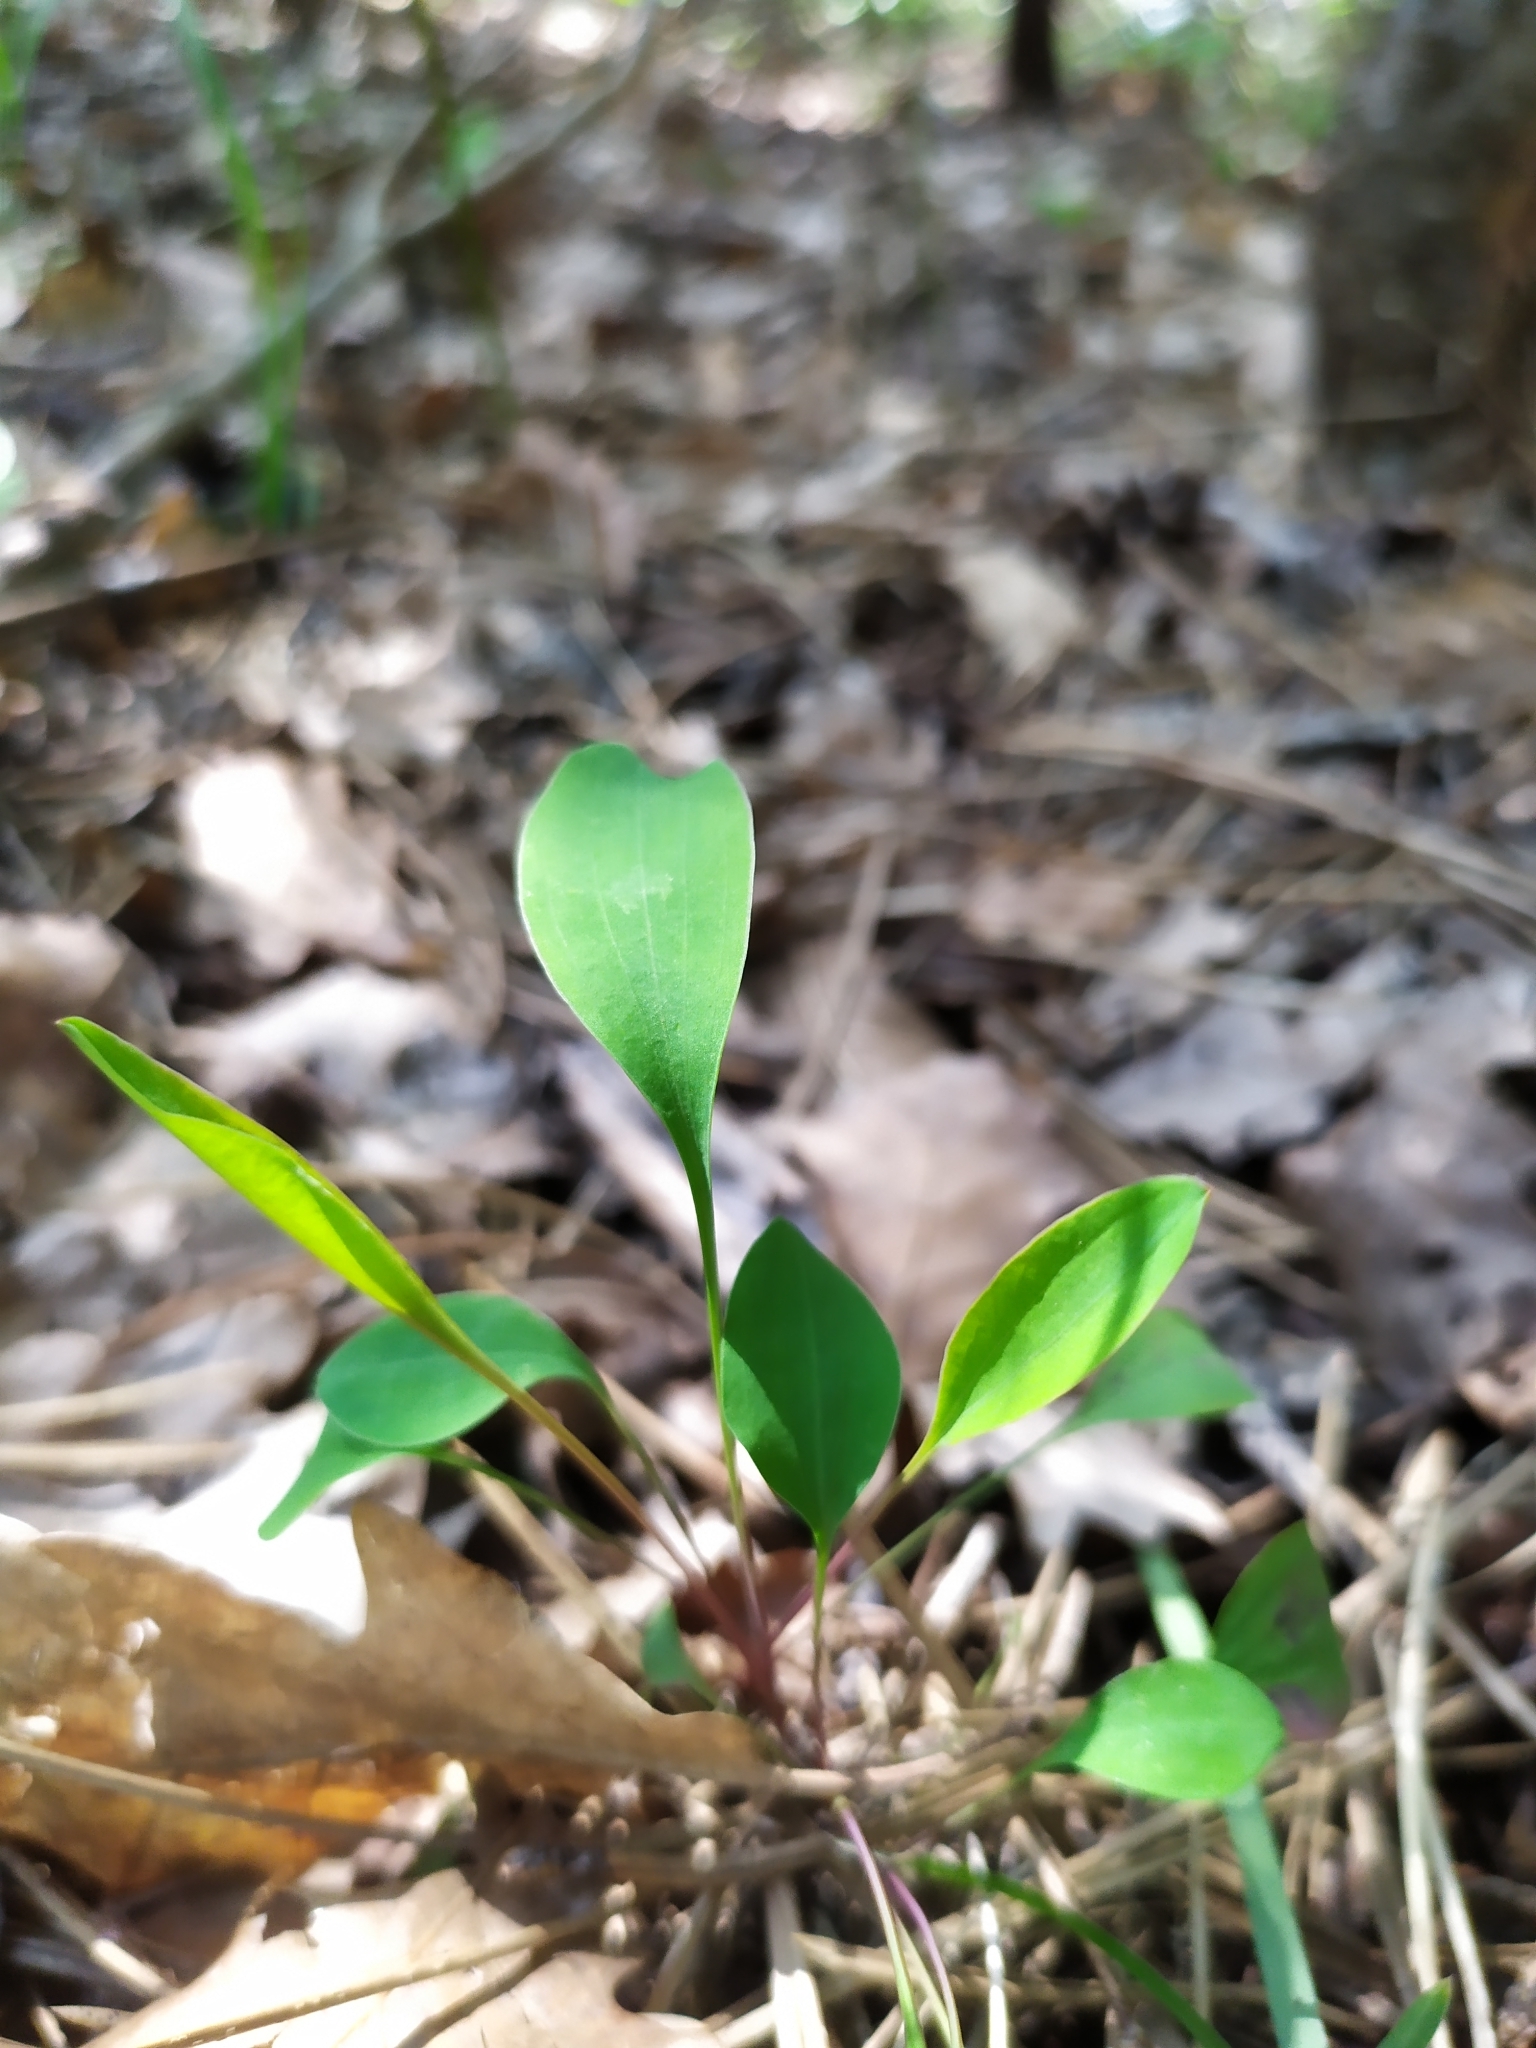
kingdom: Plantae
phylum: Tracheophyta
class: Magnoliopsida
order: Apiales
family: Apiaceae
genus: Bupleurum
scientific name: Bupleurum falcatum
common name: Sickle-leaved hare's-ear
